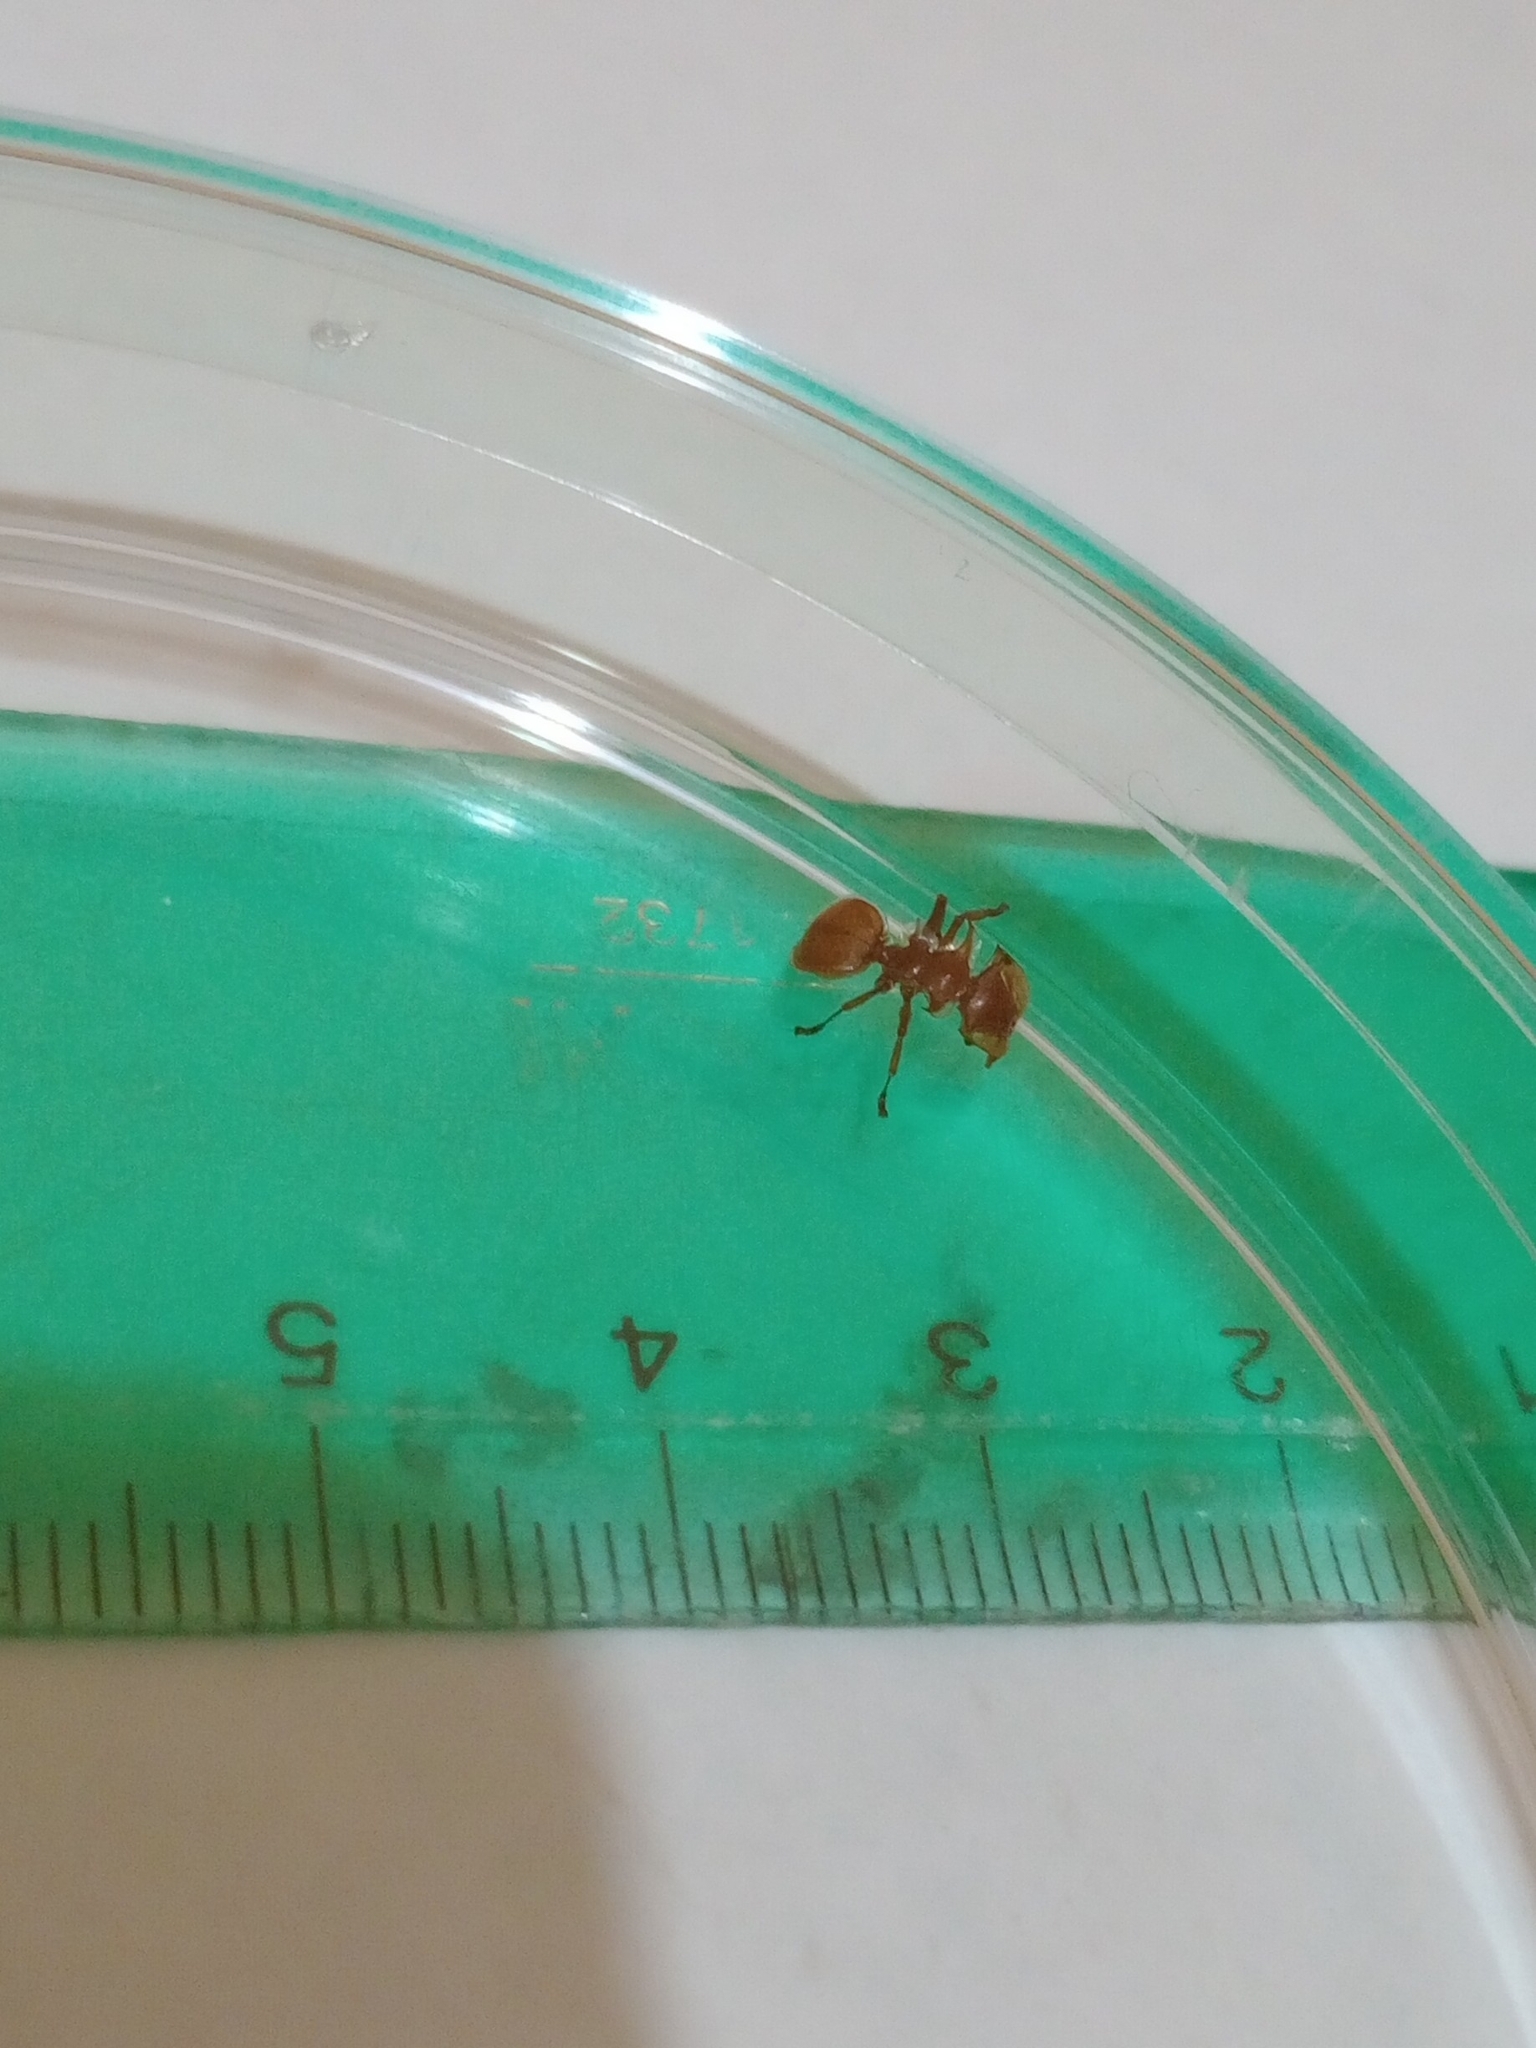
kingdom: Animalia
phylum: Arthropoda
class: Insecta
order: Hymenoptera
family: Formicidae
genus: Cephalotes
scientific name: Cephalotes clypeatus
